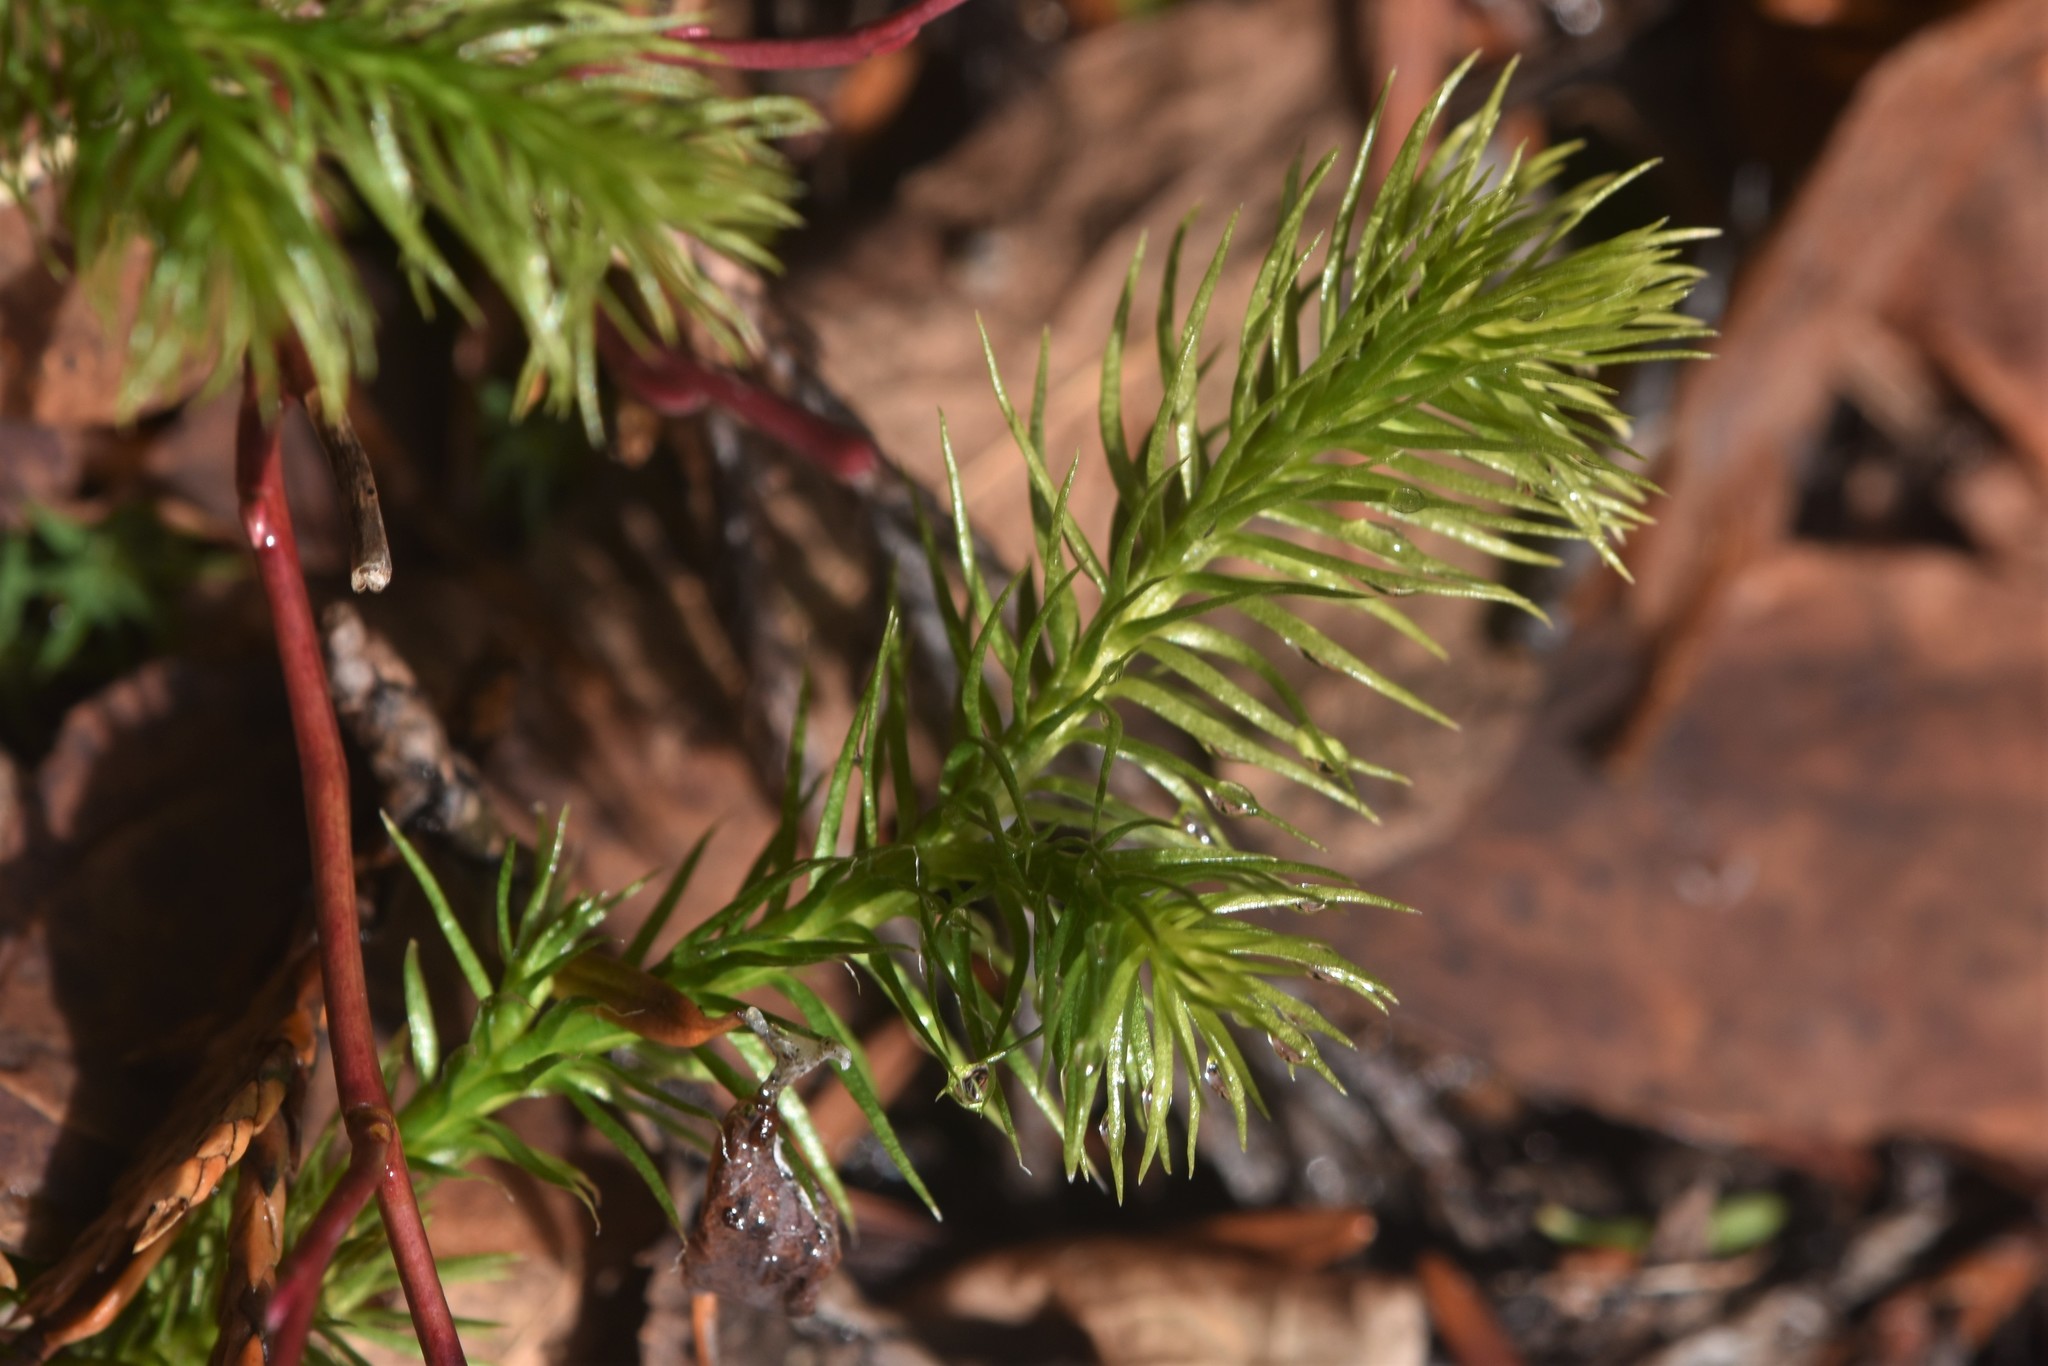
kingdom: Plantae
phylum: Tracheophyta
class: Lycopodiopsida
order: Lycopodiales
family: Lycopodiaceae
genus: Lycopodium
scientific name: Lycopodium clavatum
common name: Stag's-horn clubmoss
